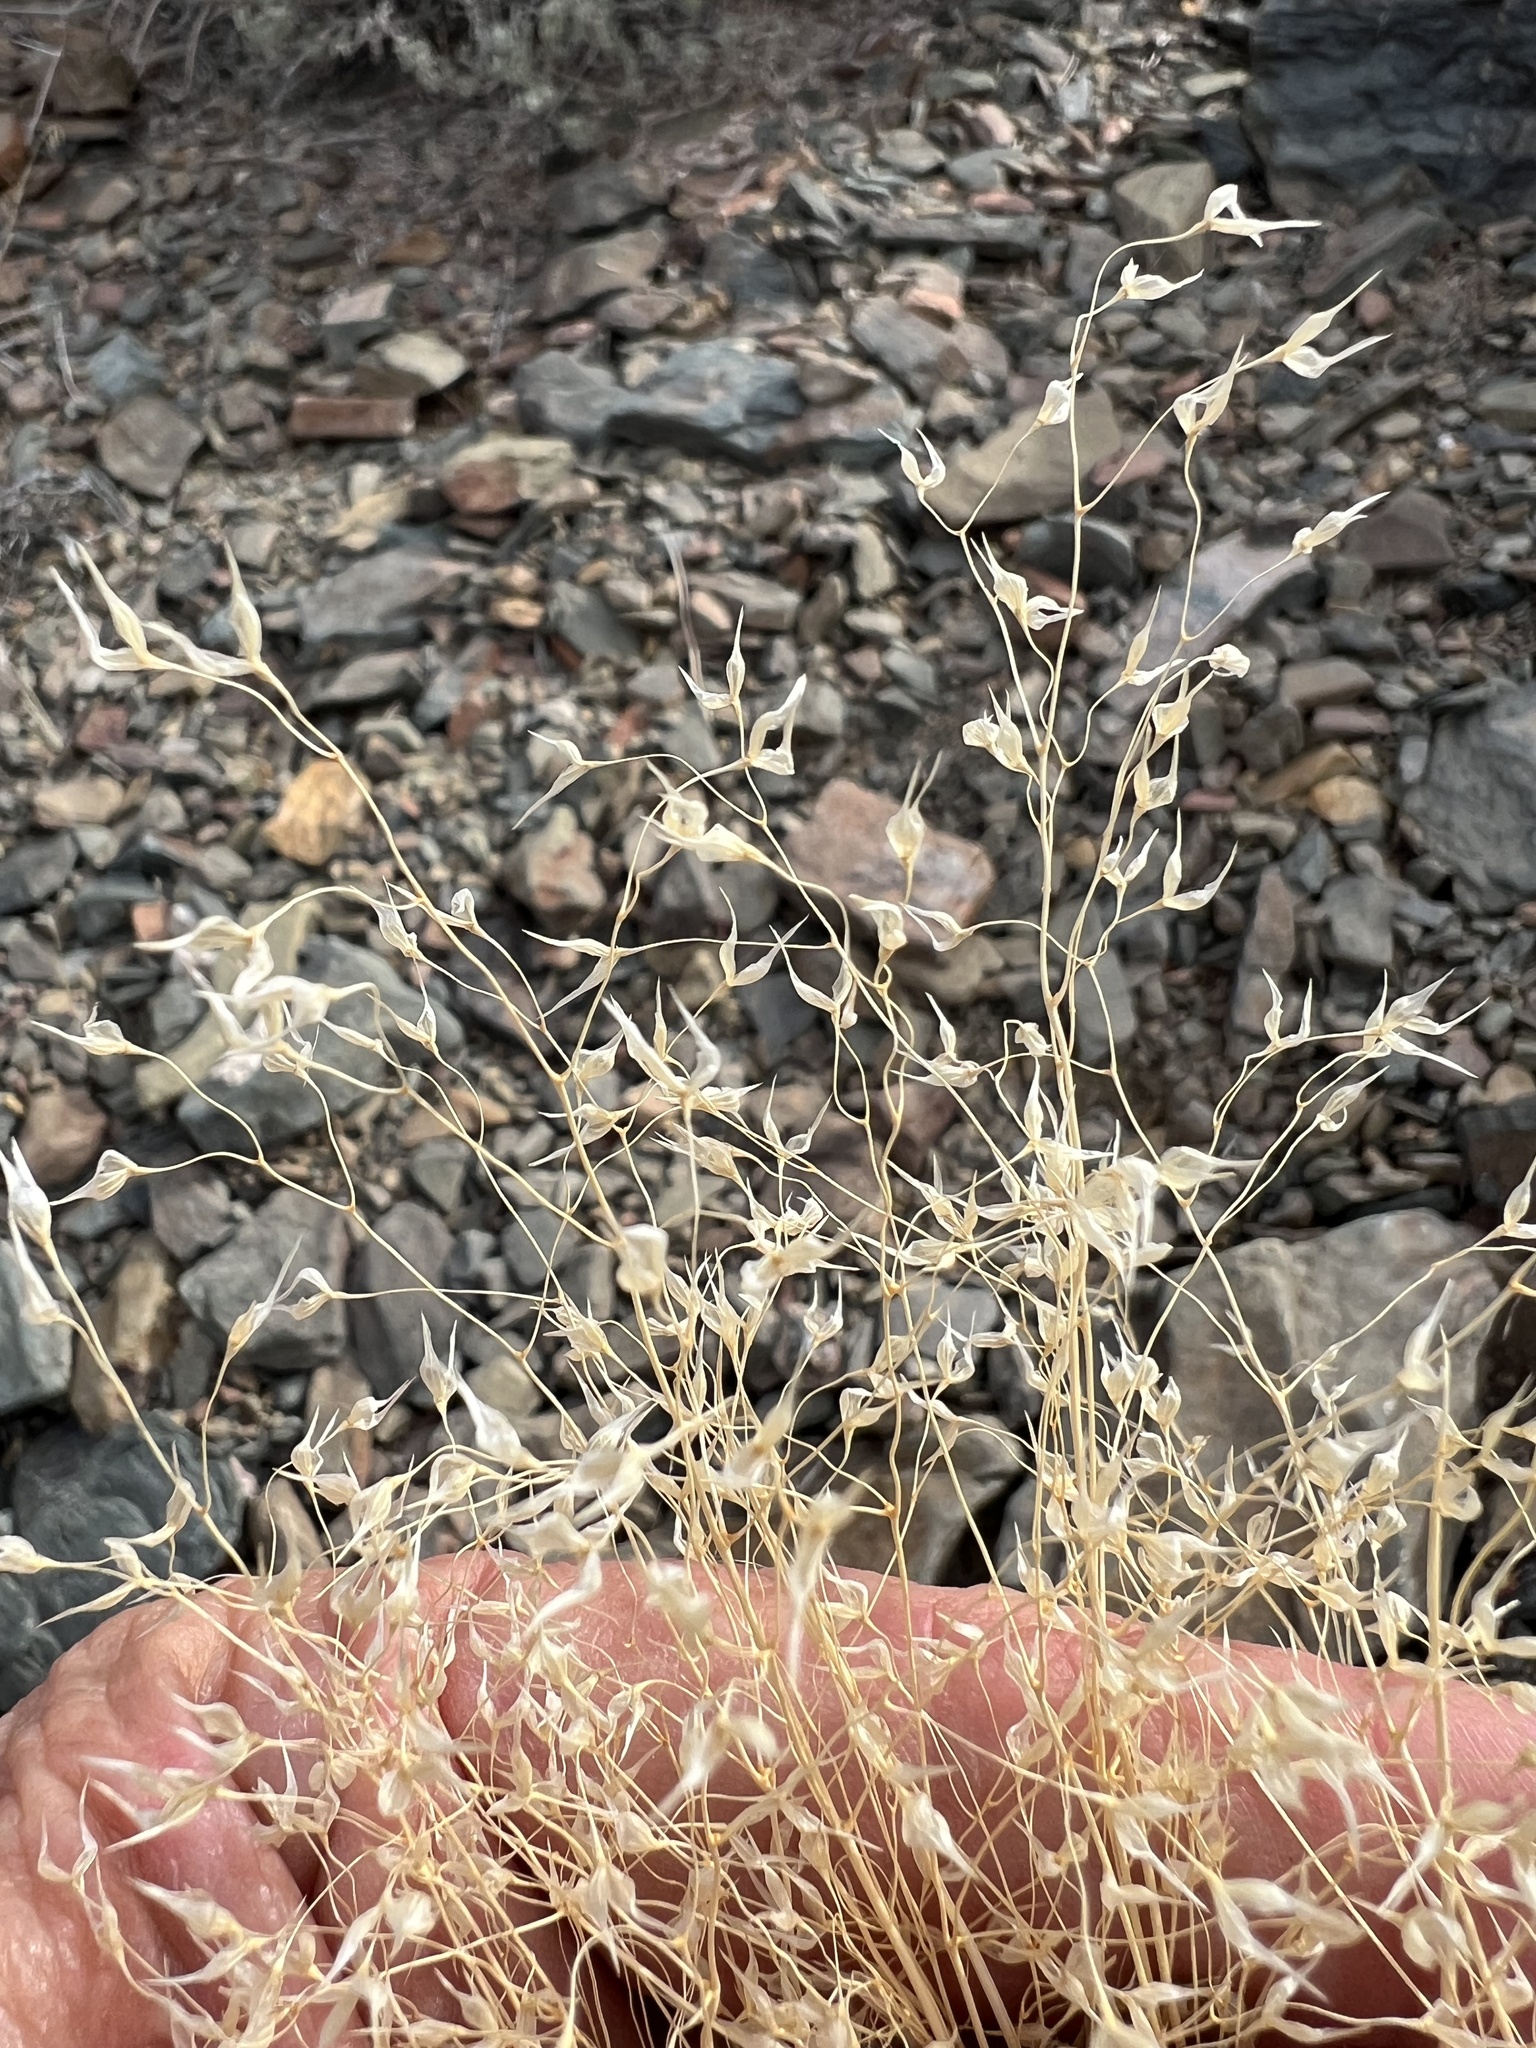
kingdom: Plantae
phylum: Tracheophyta
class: Liliopsida
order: Poales
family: Poaceae
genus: Eriocoma
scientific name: Eriocoma hymenoides
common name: Indian mountain ricegrass
